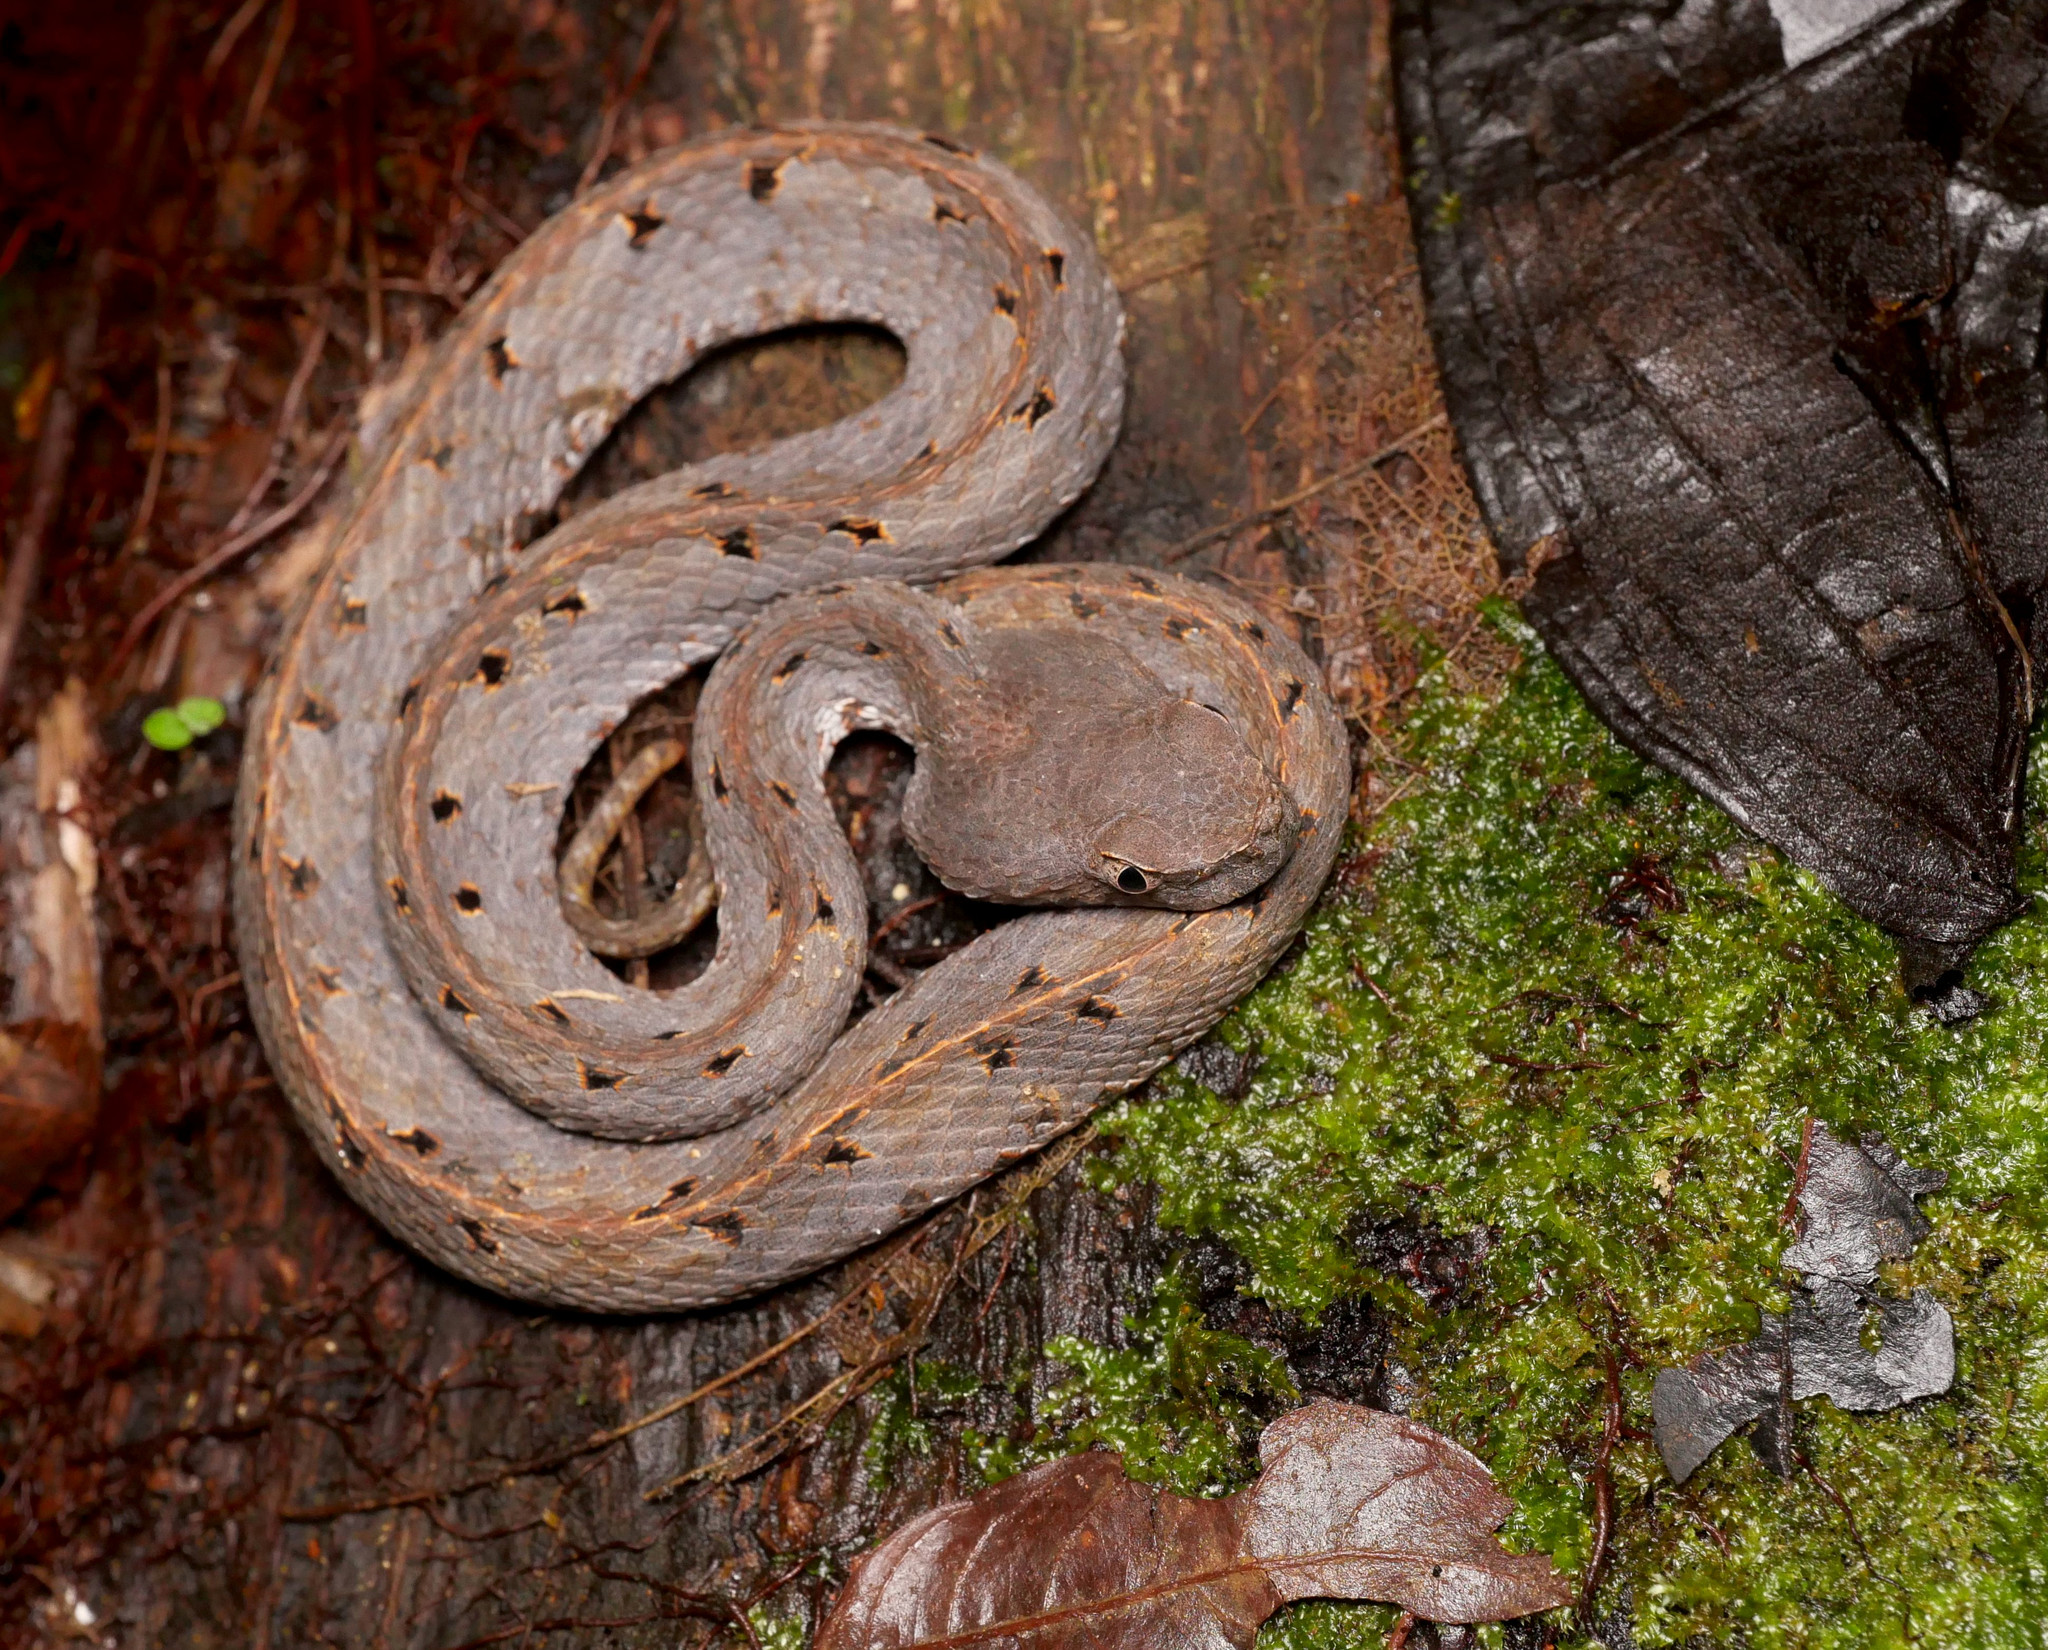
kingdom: Animalia
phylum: Chordata
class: Squamata
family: Viperidae
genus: Porthidium
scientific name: Porthidium nasutum
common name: Hognosed pit viper
